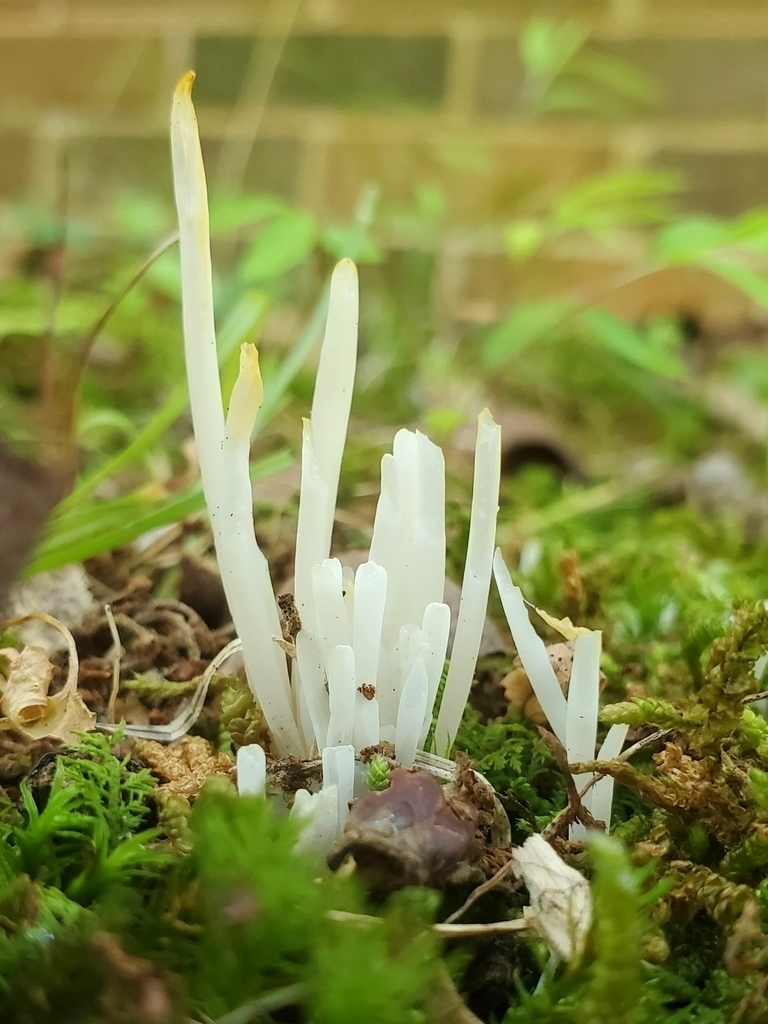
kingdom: Fungi
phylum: Basidiomycota
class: Agaricomycetes
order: Agaricales
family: Clavariaceae
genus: Clavaria
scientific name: Clavaria fragilis
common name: White spindles
